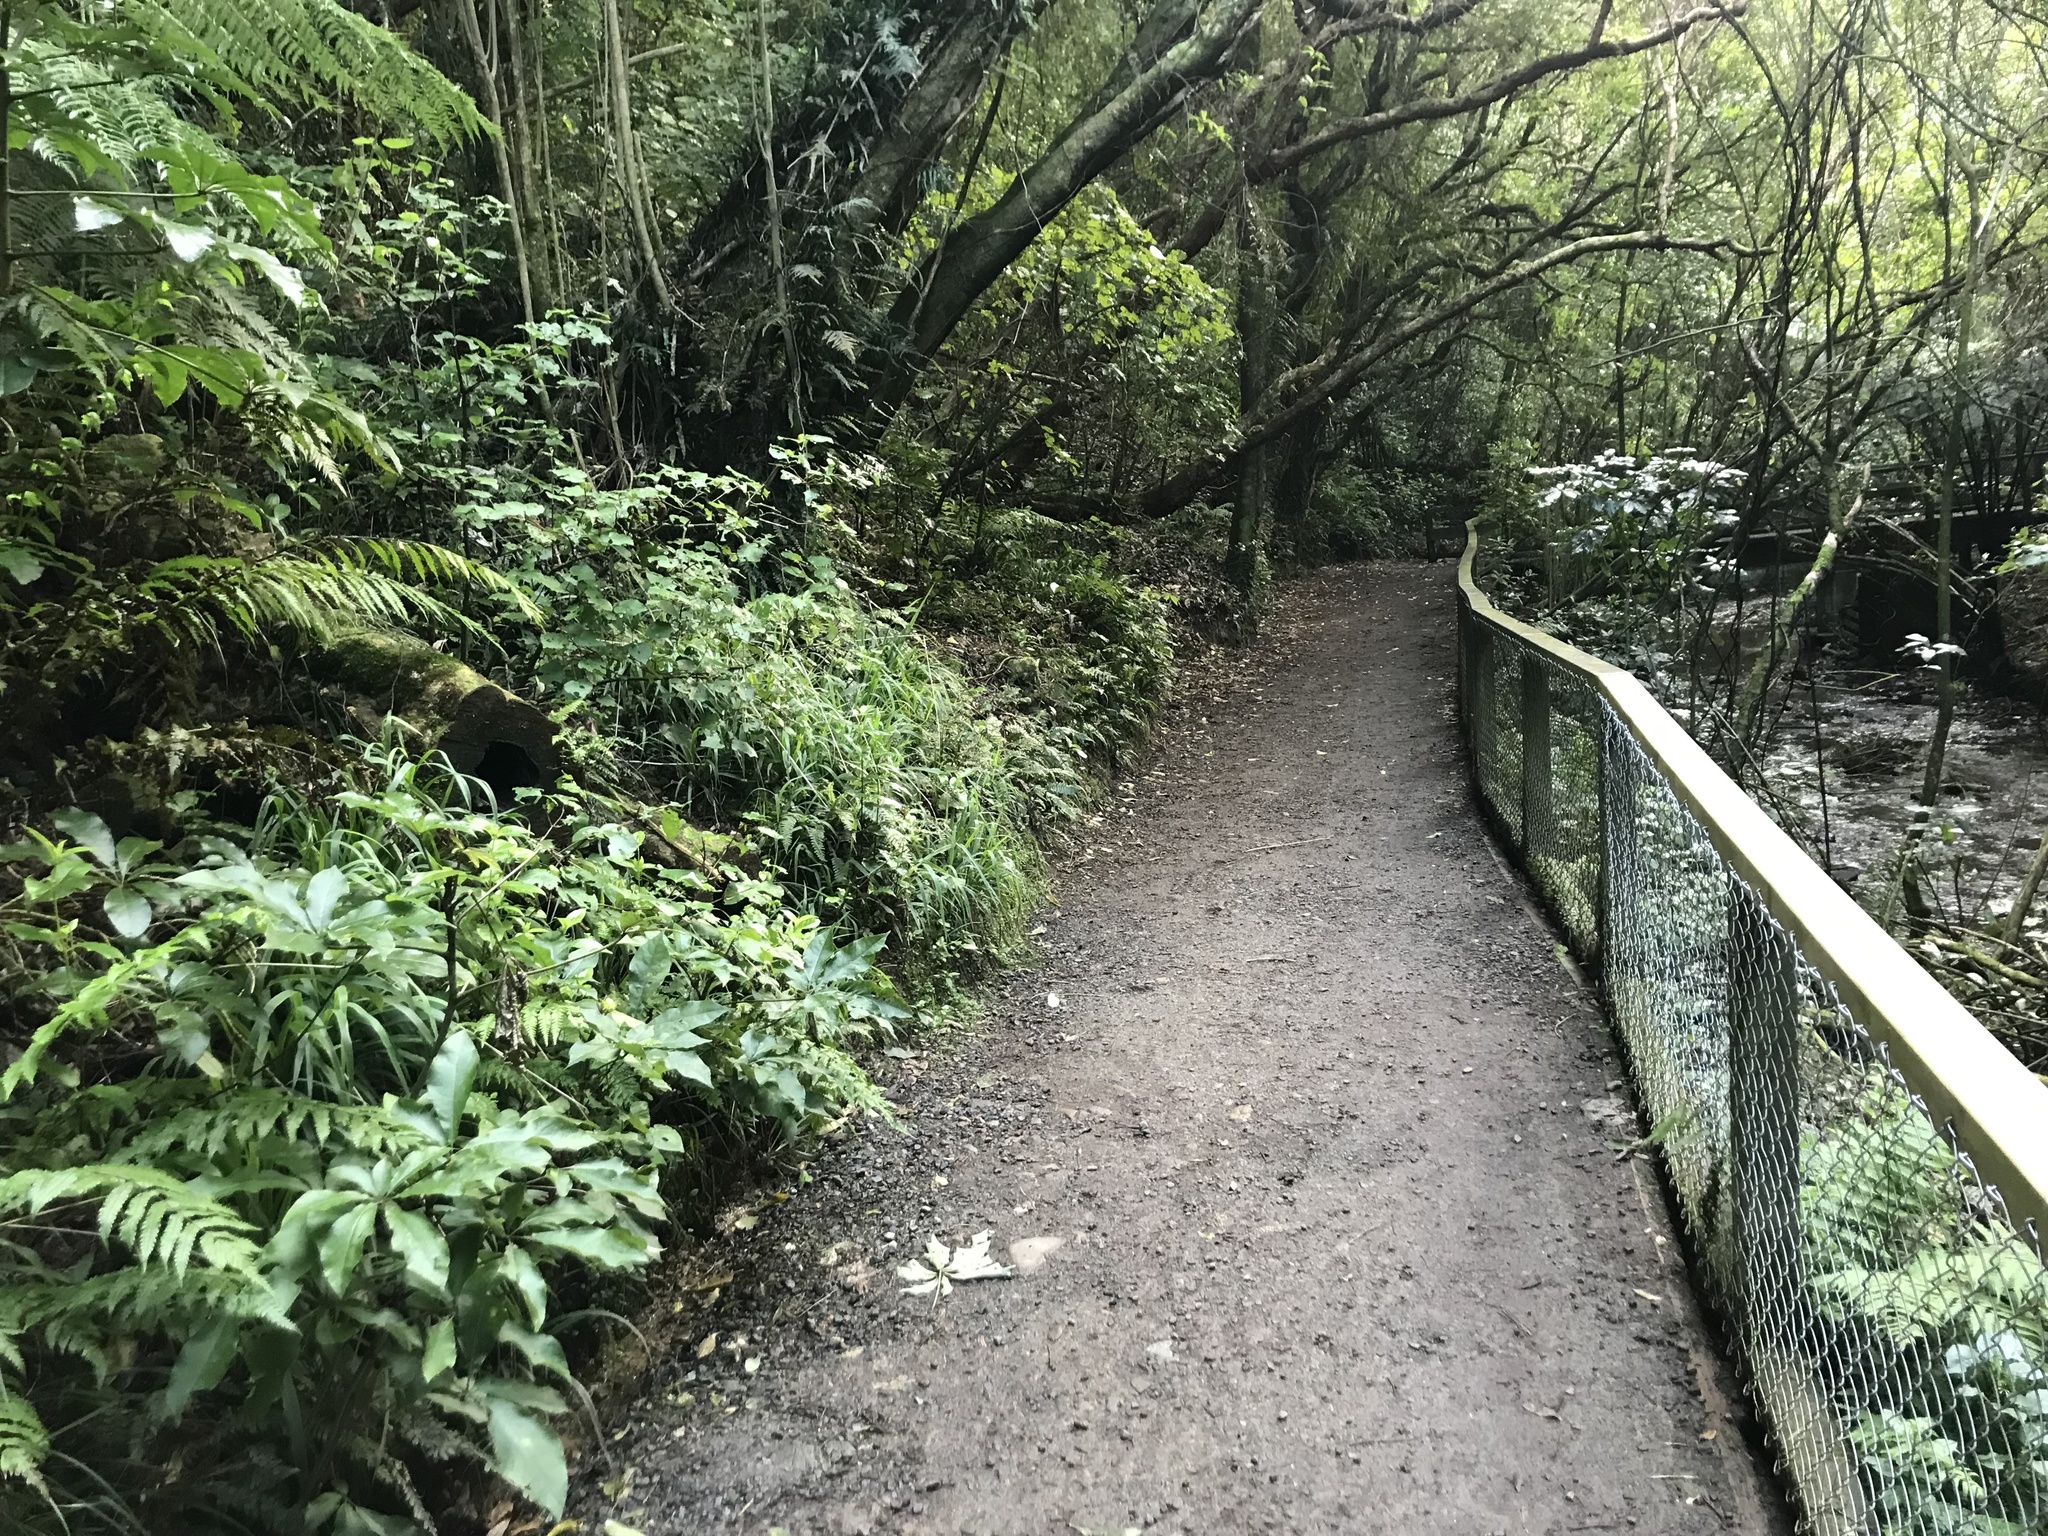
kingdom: Plantae
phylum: Tracheophyta
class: Liliopsida
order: Commelinales
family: Commelinaceae
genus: Tradescantia
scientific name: Tradescantia fluminensis
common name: Wandering-jew
